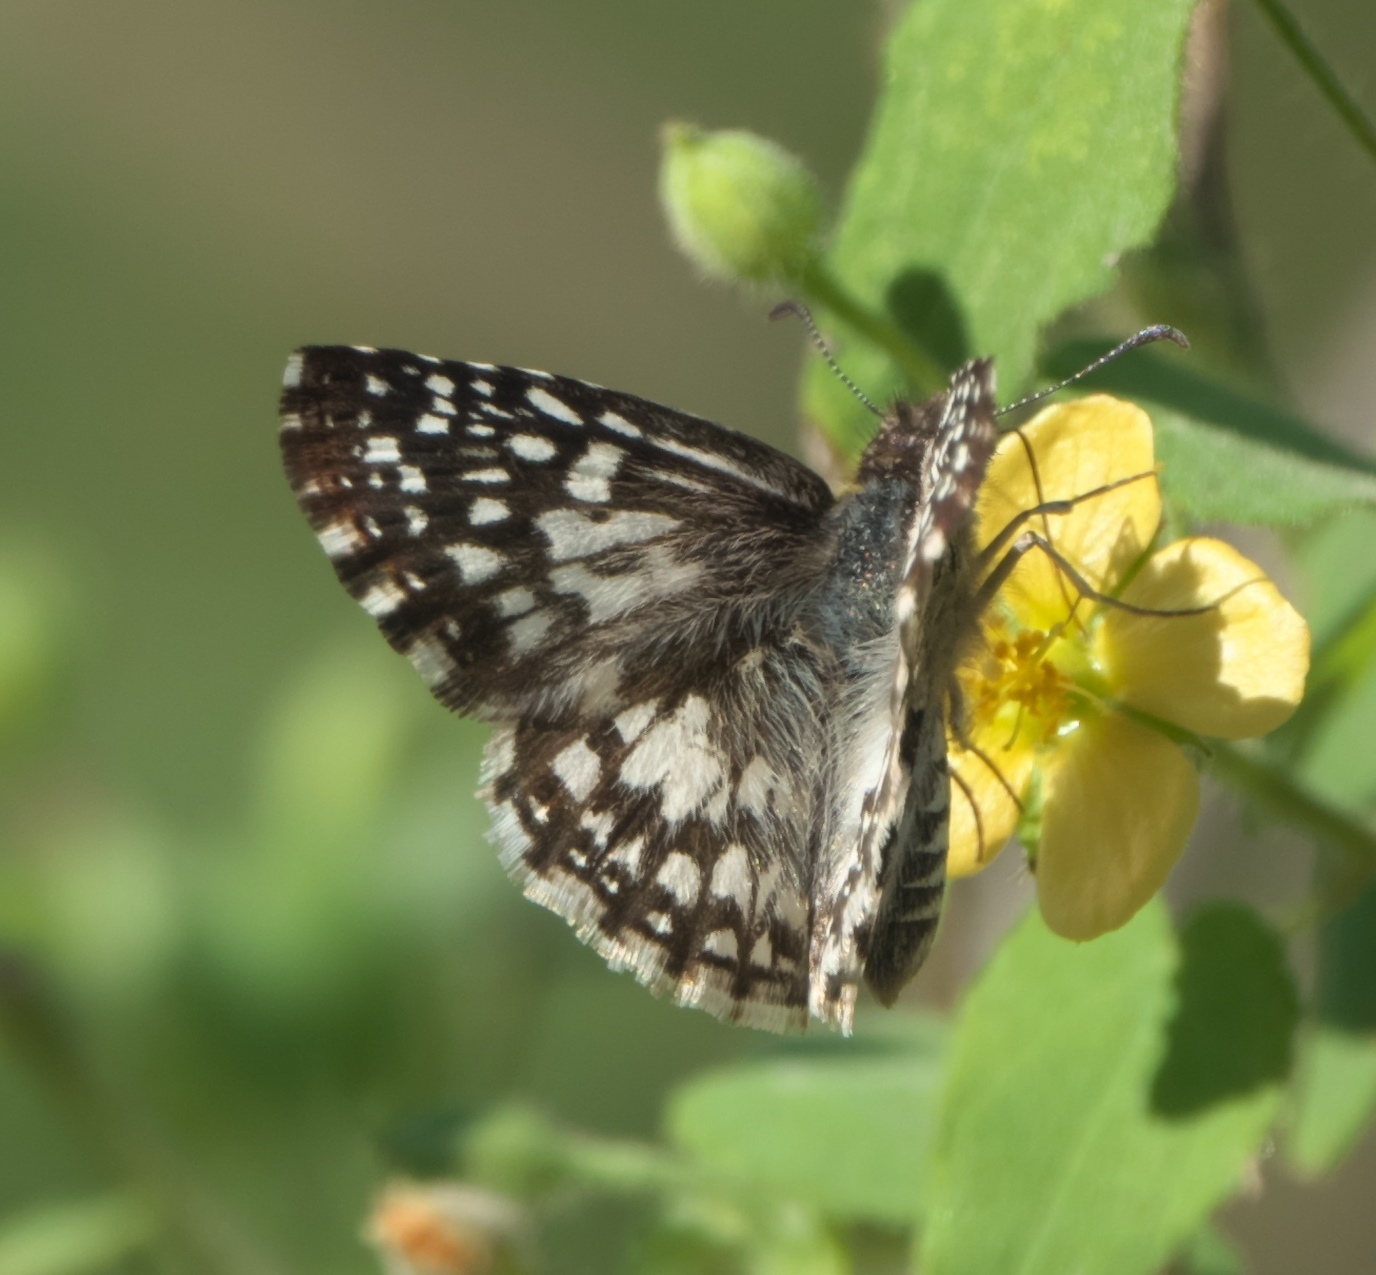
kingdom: Animalia
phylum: Arthropoda
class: Insecta
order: Lepidoptera
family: Hesperiidae
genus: Pyrgus
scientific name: Pyrgus oileus
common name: Tropical checkered-skipper
